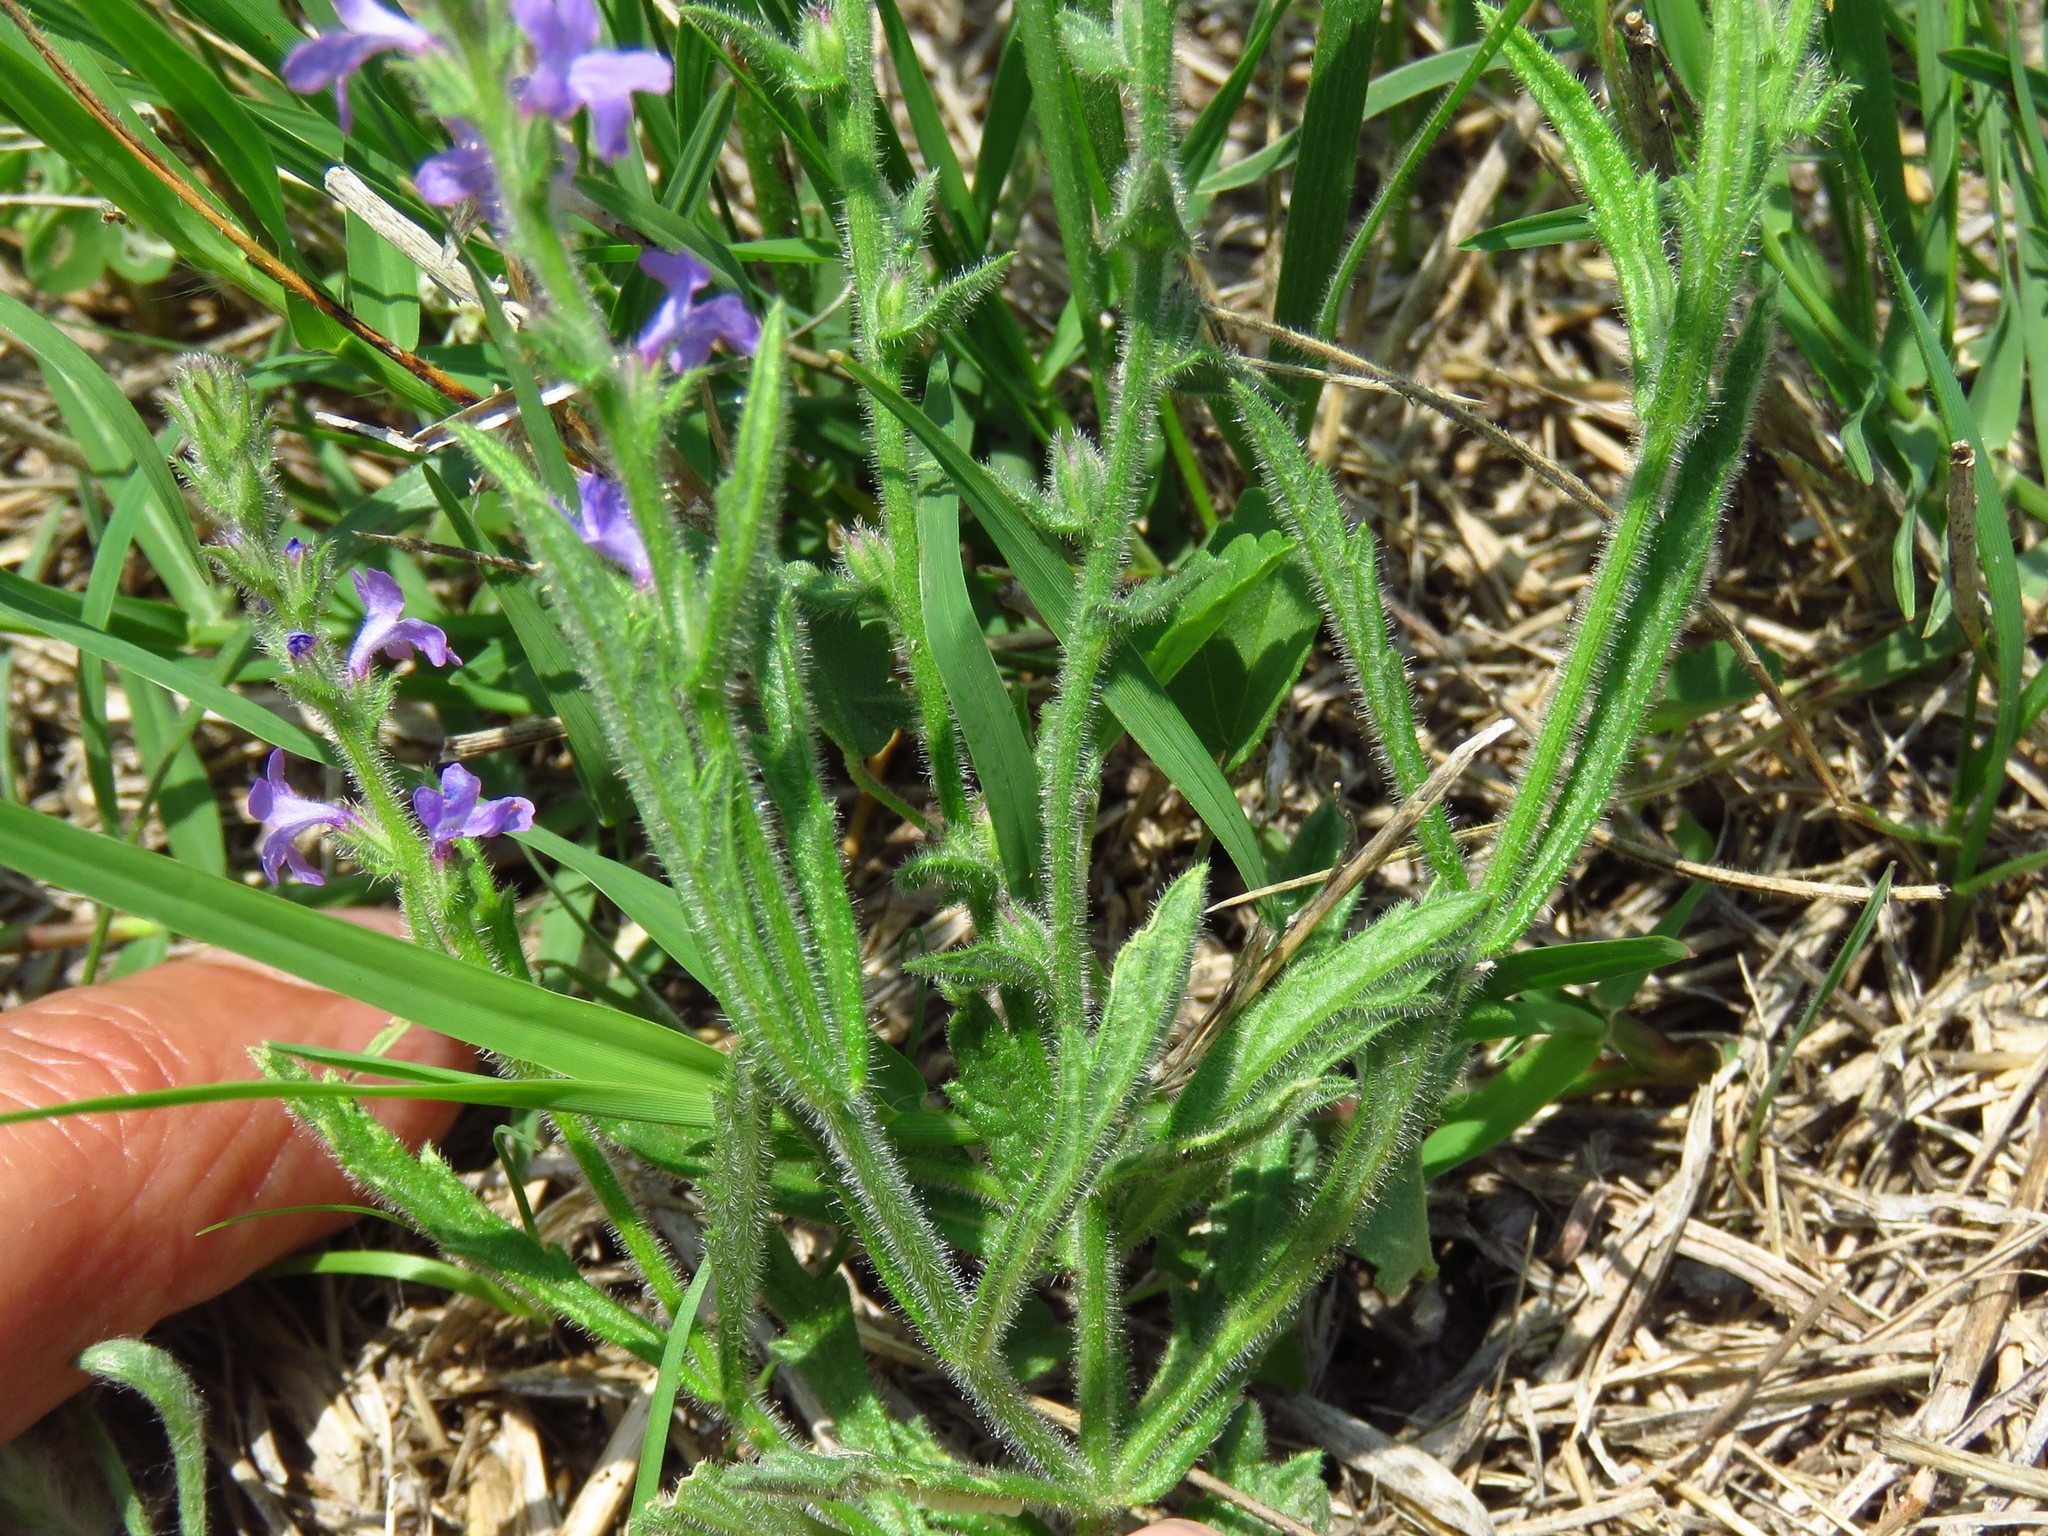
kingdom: Plantae
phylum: Tracheophyta
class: Magnoliopsida
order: Lamiales
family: Verbenaceae
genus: Verbena
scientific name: Verbena canescens
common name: Gray vervain
